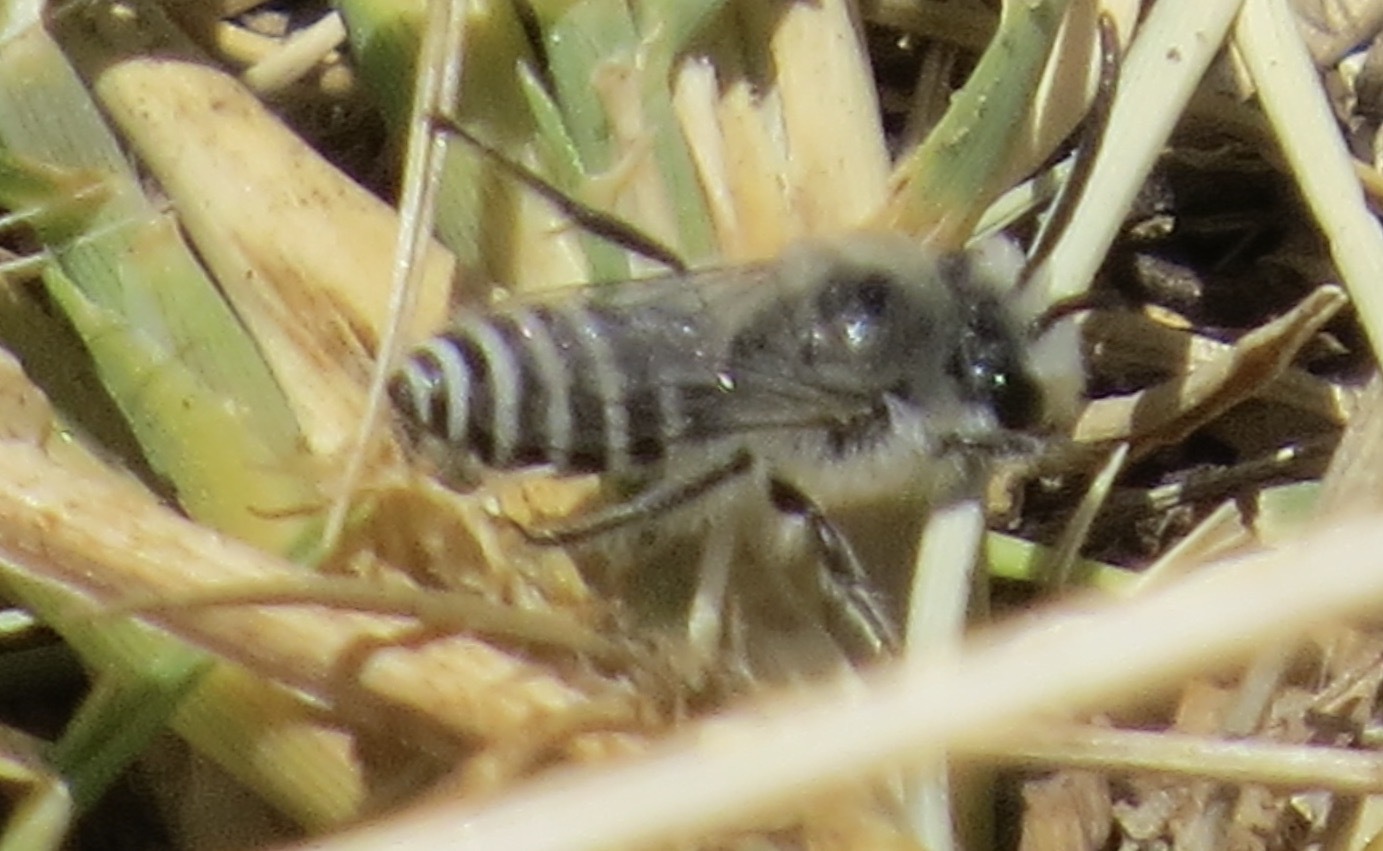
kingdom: Animalia
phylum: Arthropoda
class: Insecta
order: Hymenoptera
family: Colletidae
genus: Colletes
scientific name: Colletes
